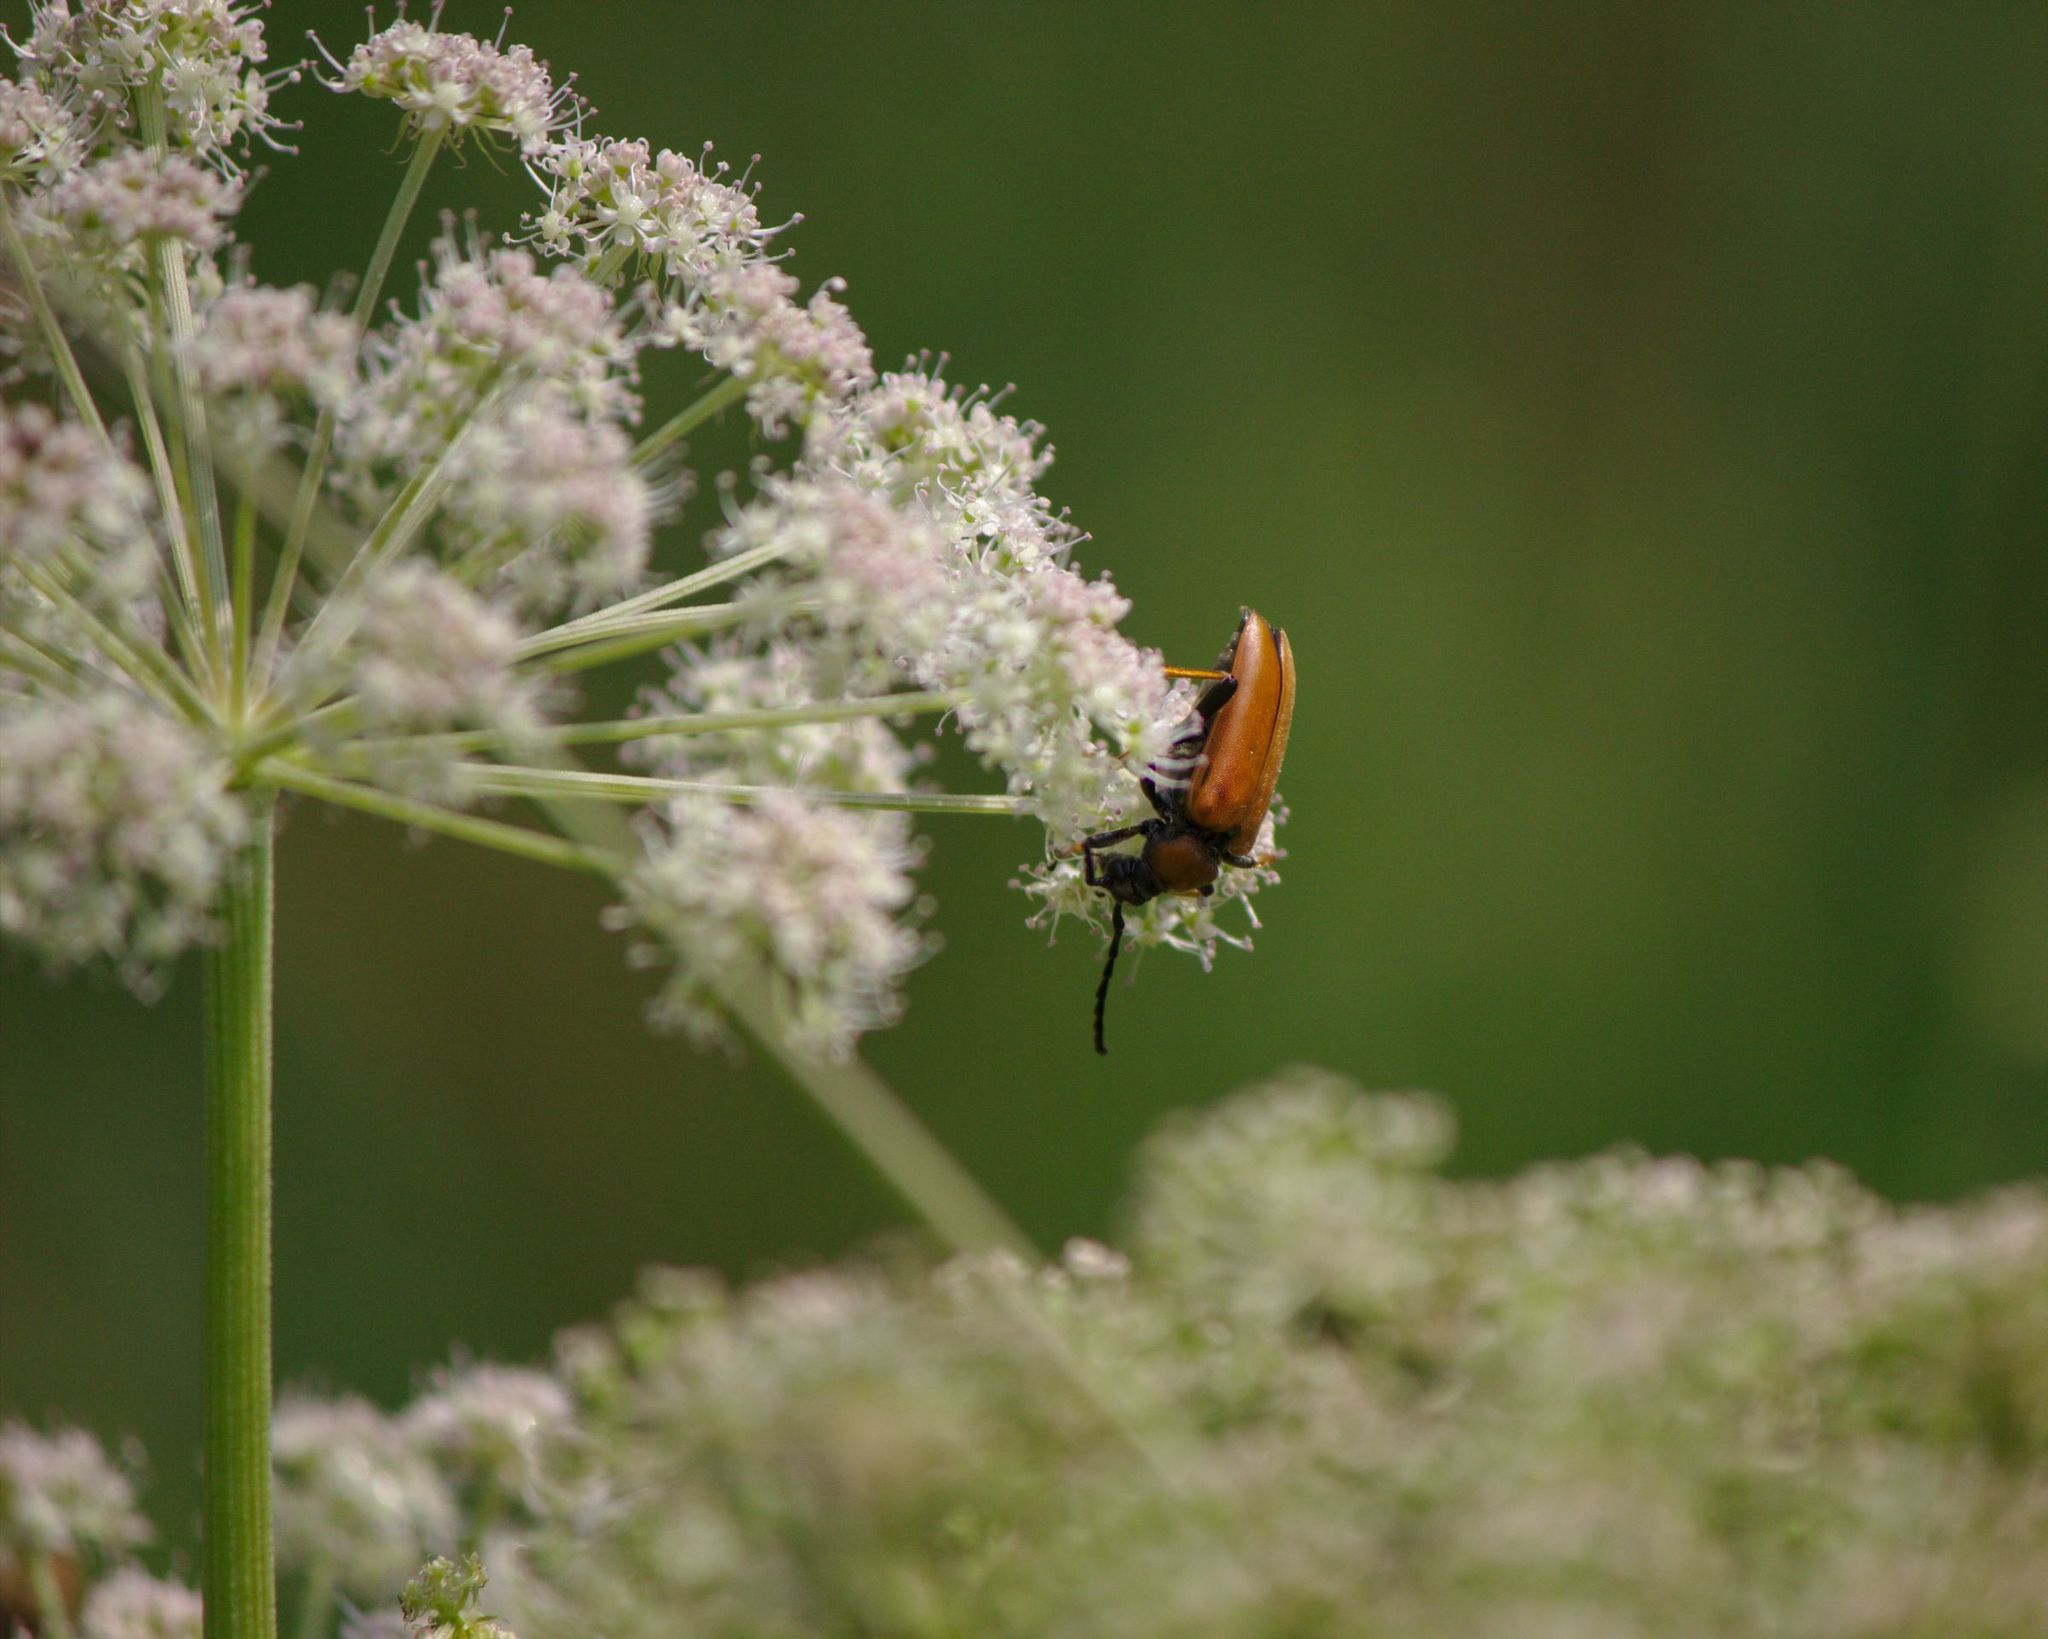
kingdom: Animalia
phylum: Arthropoda
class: Insecta
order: Coleoptera
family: Cerambycidae
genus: Stictoleptura
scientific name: Stictoleptura rubra
